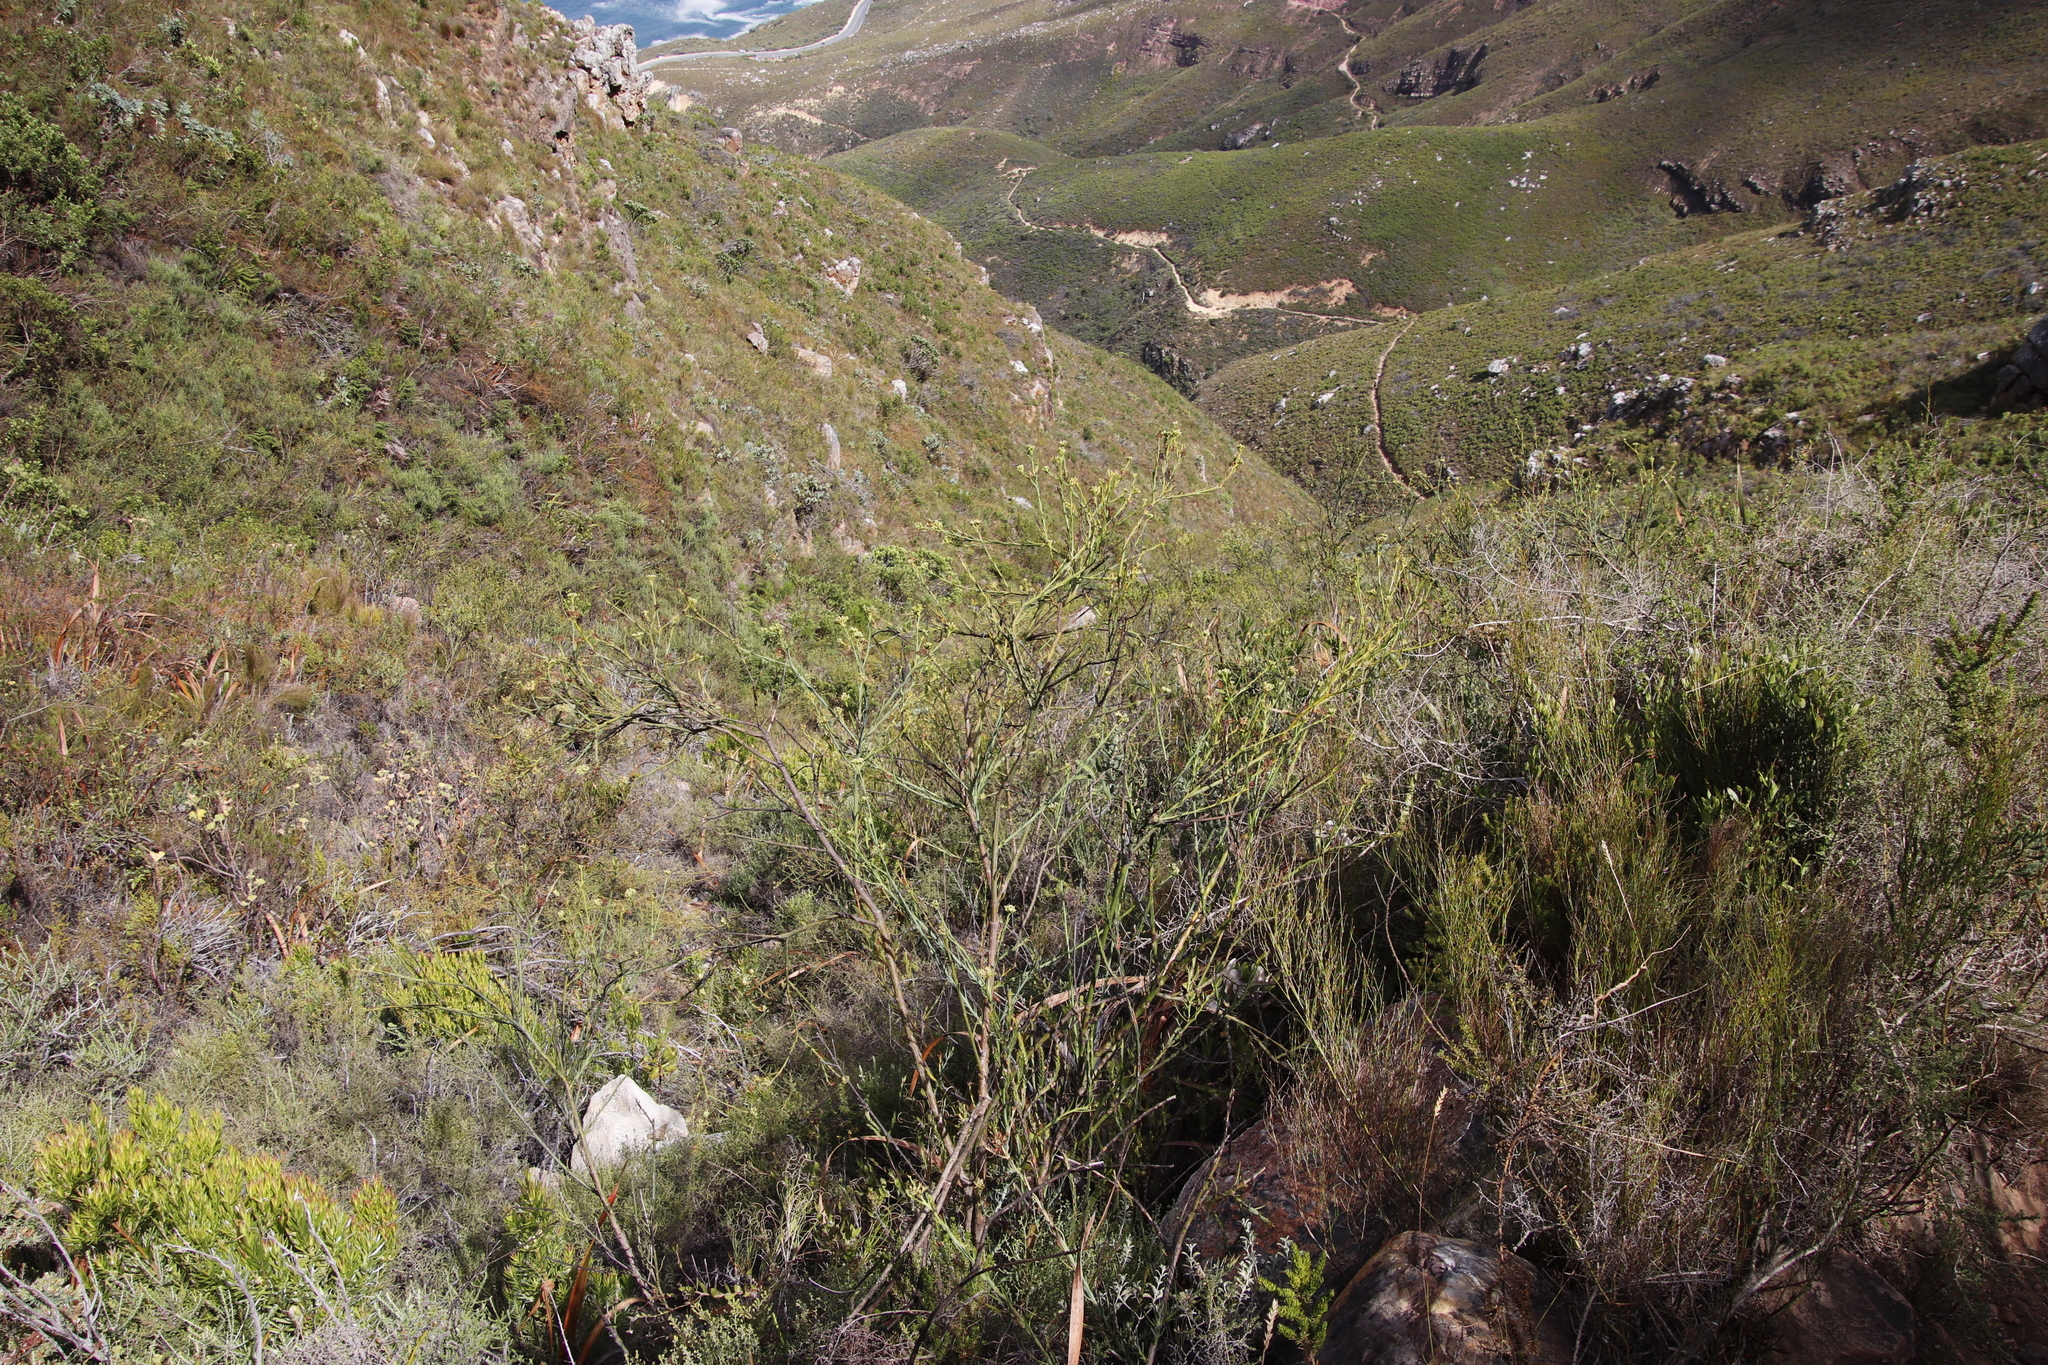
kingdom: Plantae
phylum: Tracheophyta
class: Magnoliopsida
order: Santalales
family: Thesiaceae
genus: Thesium
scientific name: Thesium strictum
